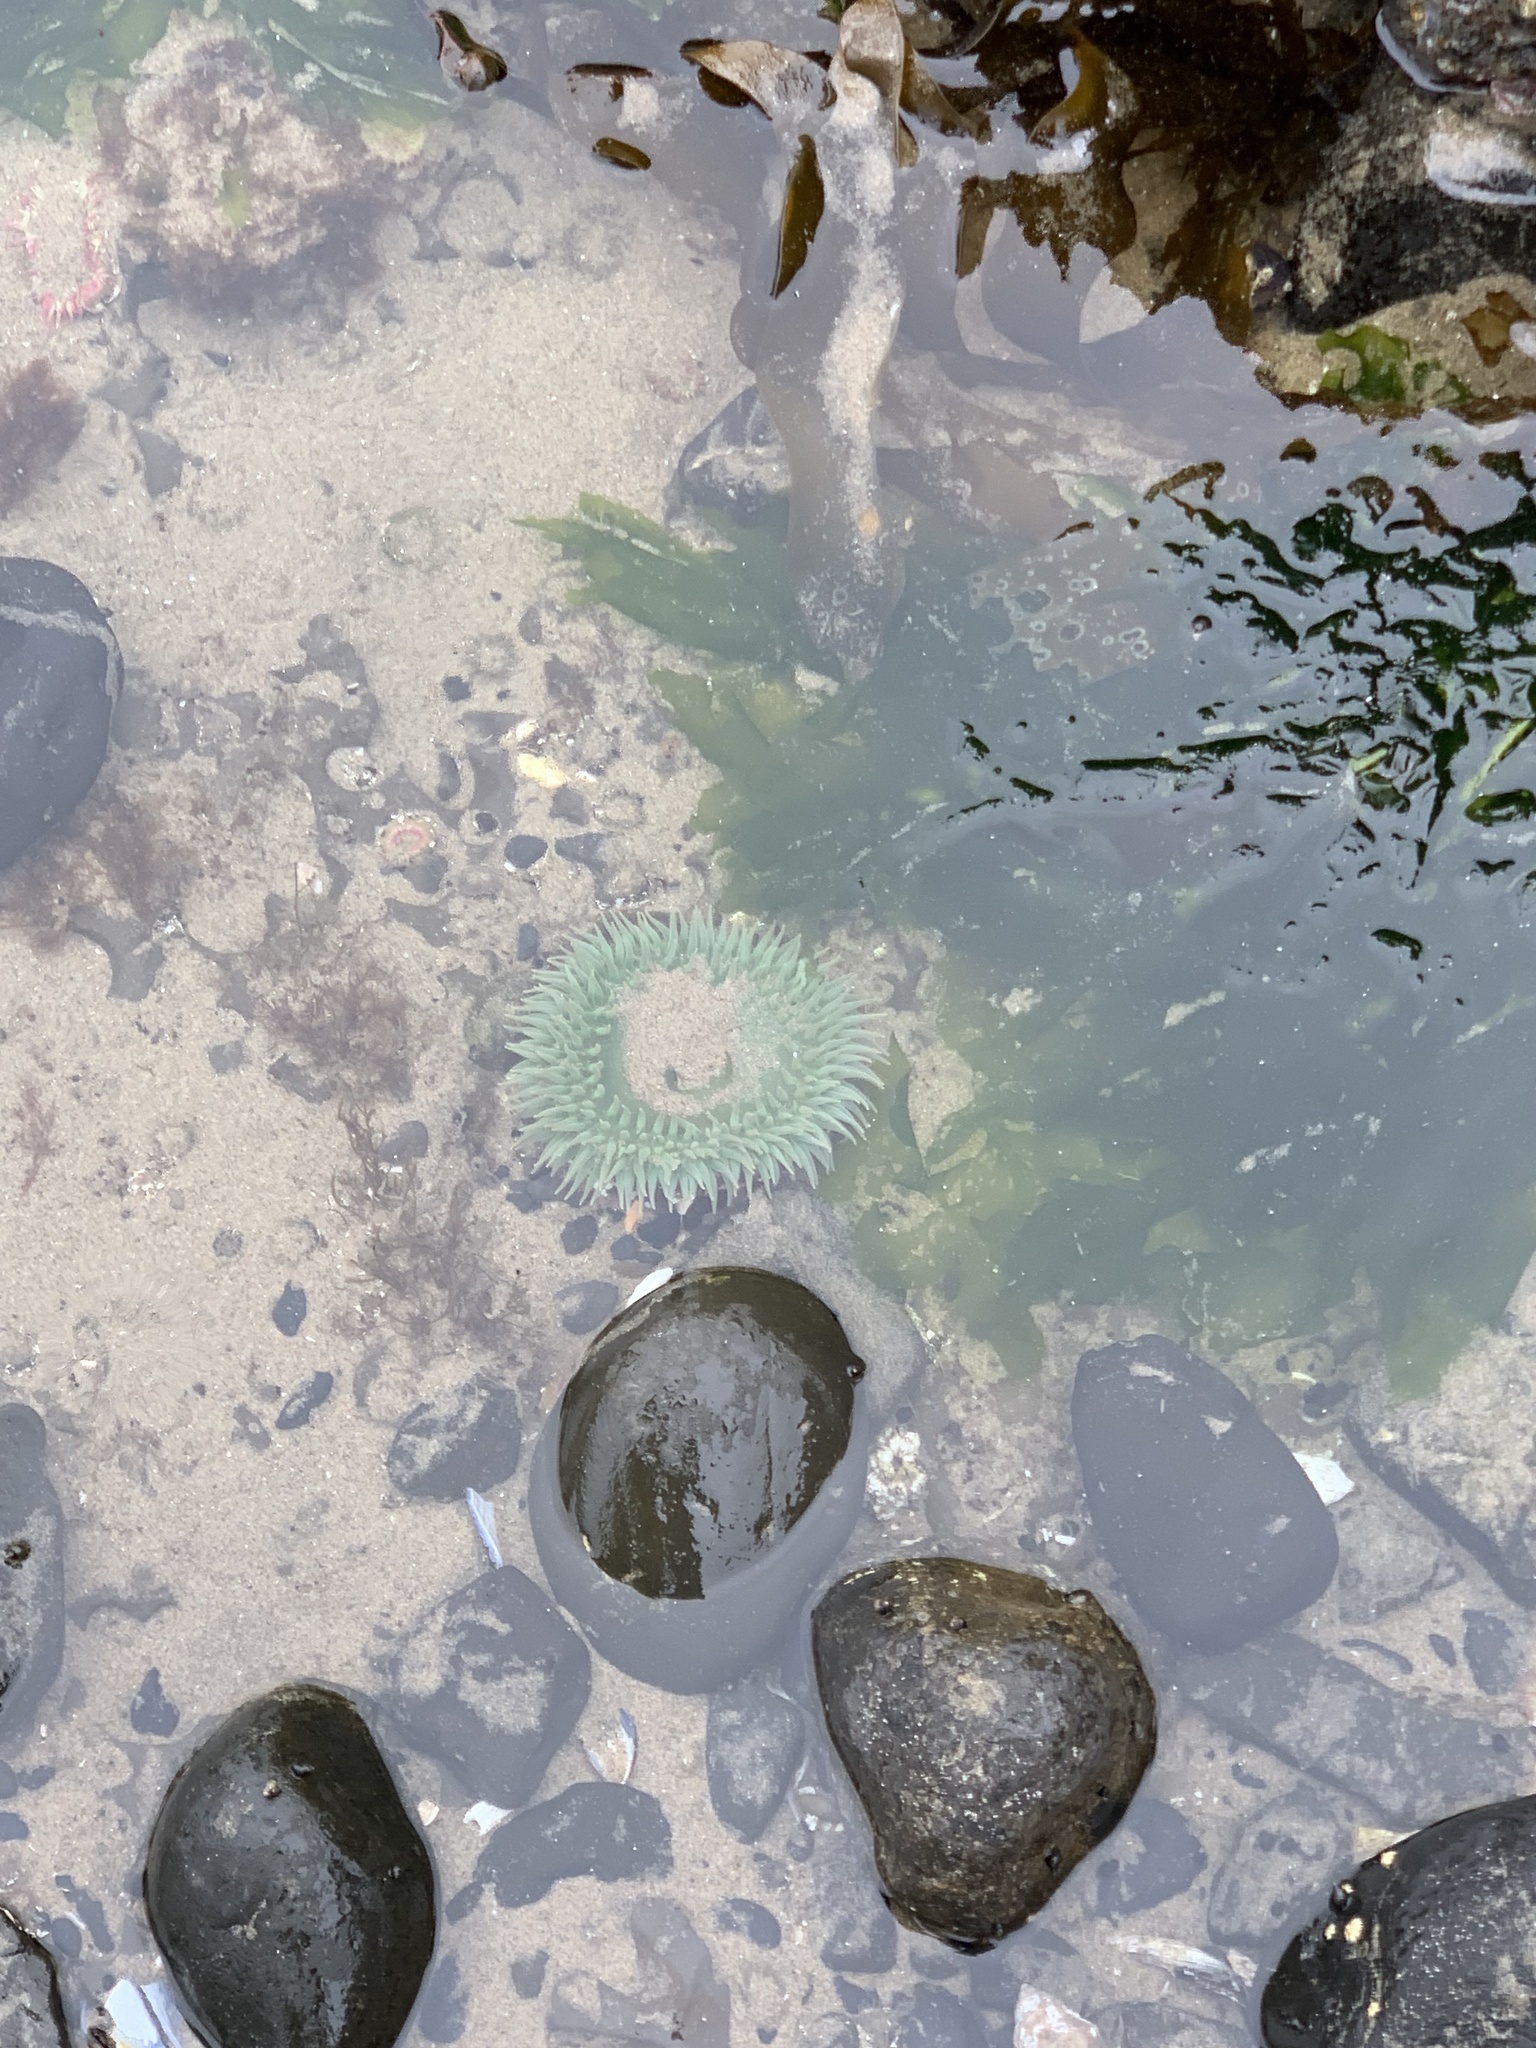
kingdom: Animalia
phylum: Cnidaria
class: Anthozoa
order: Actiniaria
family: Actiniidae
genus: Anthopleura
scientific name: Anthopleura xanthogrammica
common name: Giant green anemone
